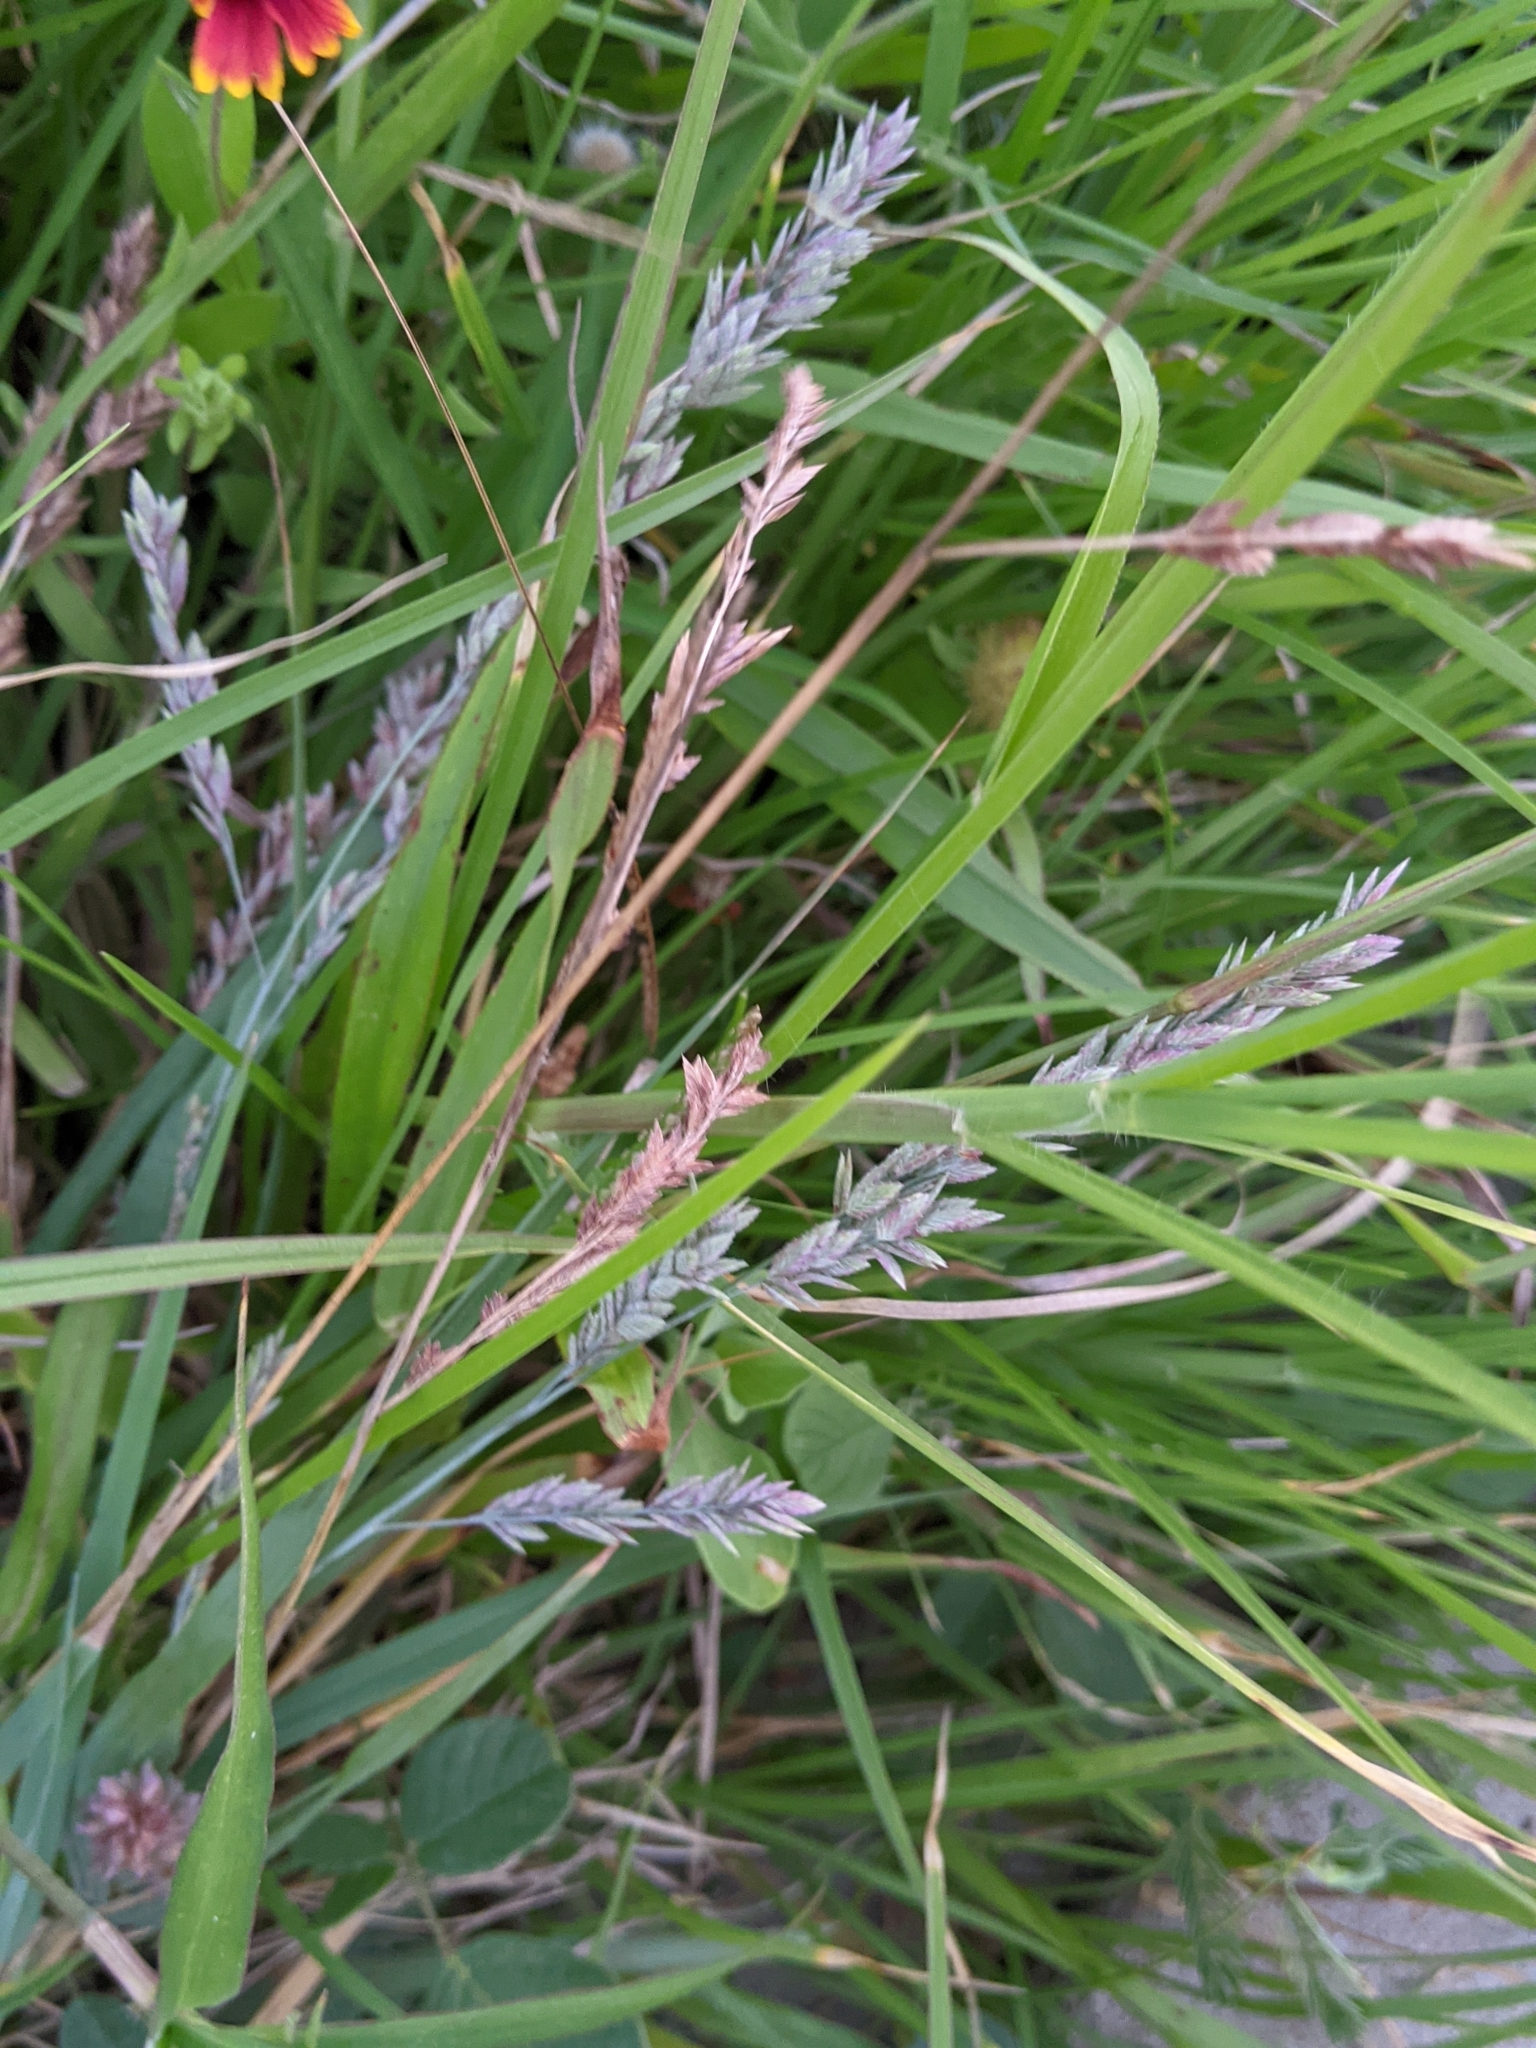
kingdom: Plantae
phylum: Tracheophyta
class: Liliopsida
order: Poales
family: Poaceae
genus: Eragrostis
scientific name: Eragrostis secundiflora
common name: Red love grass
